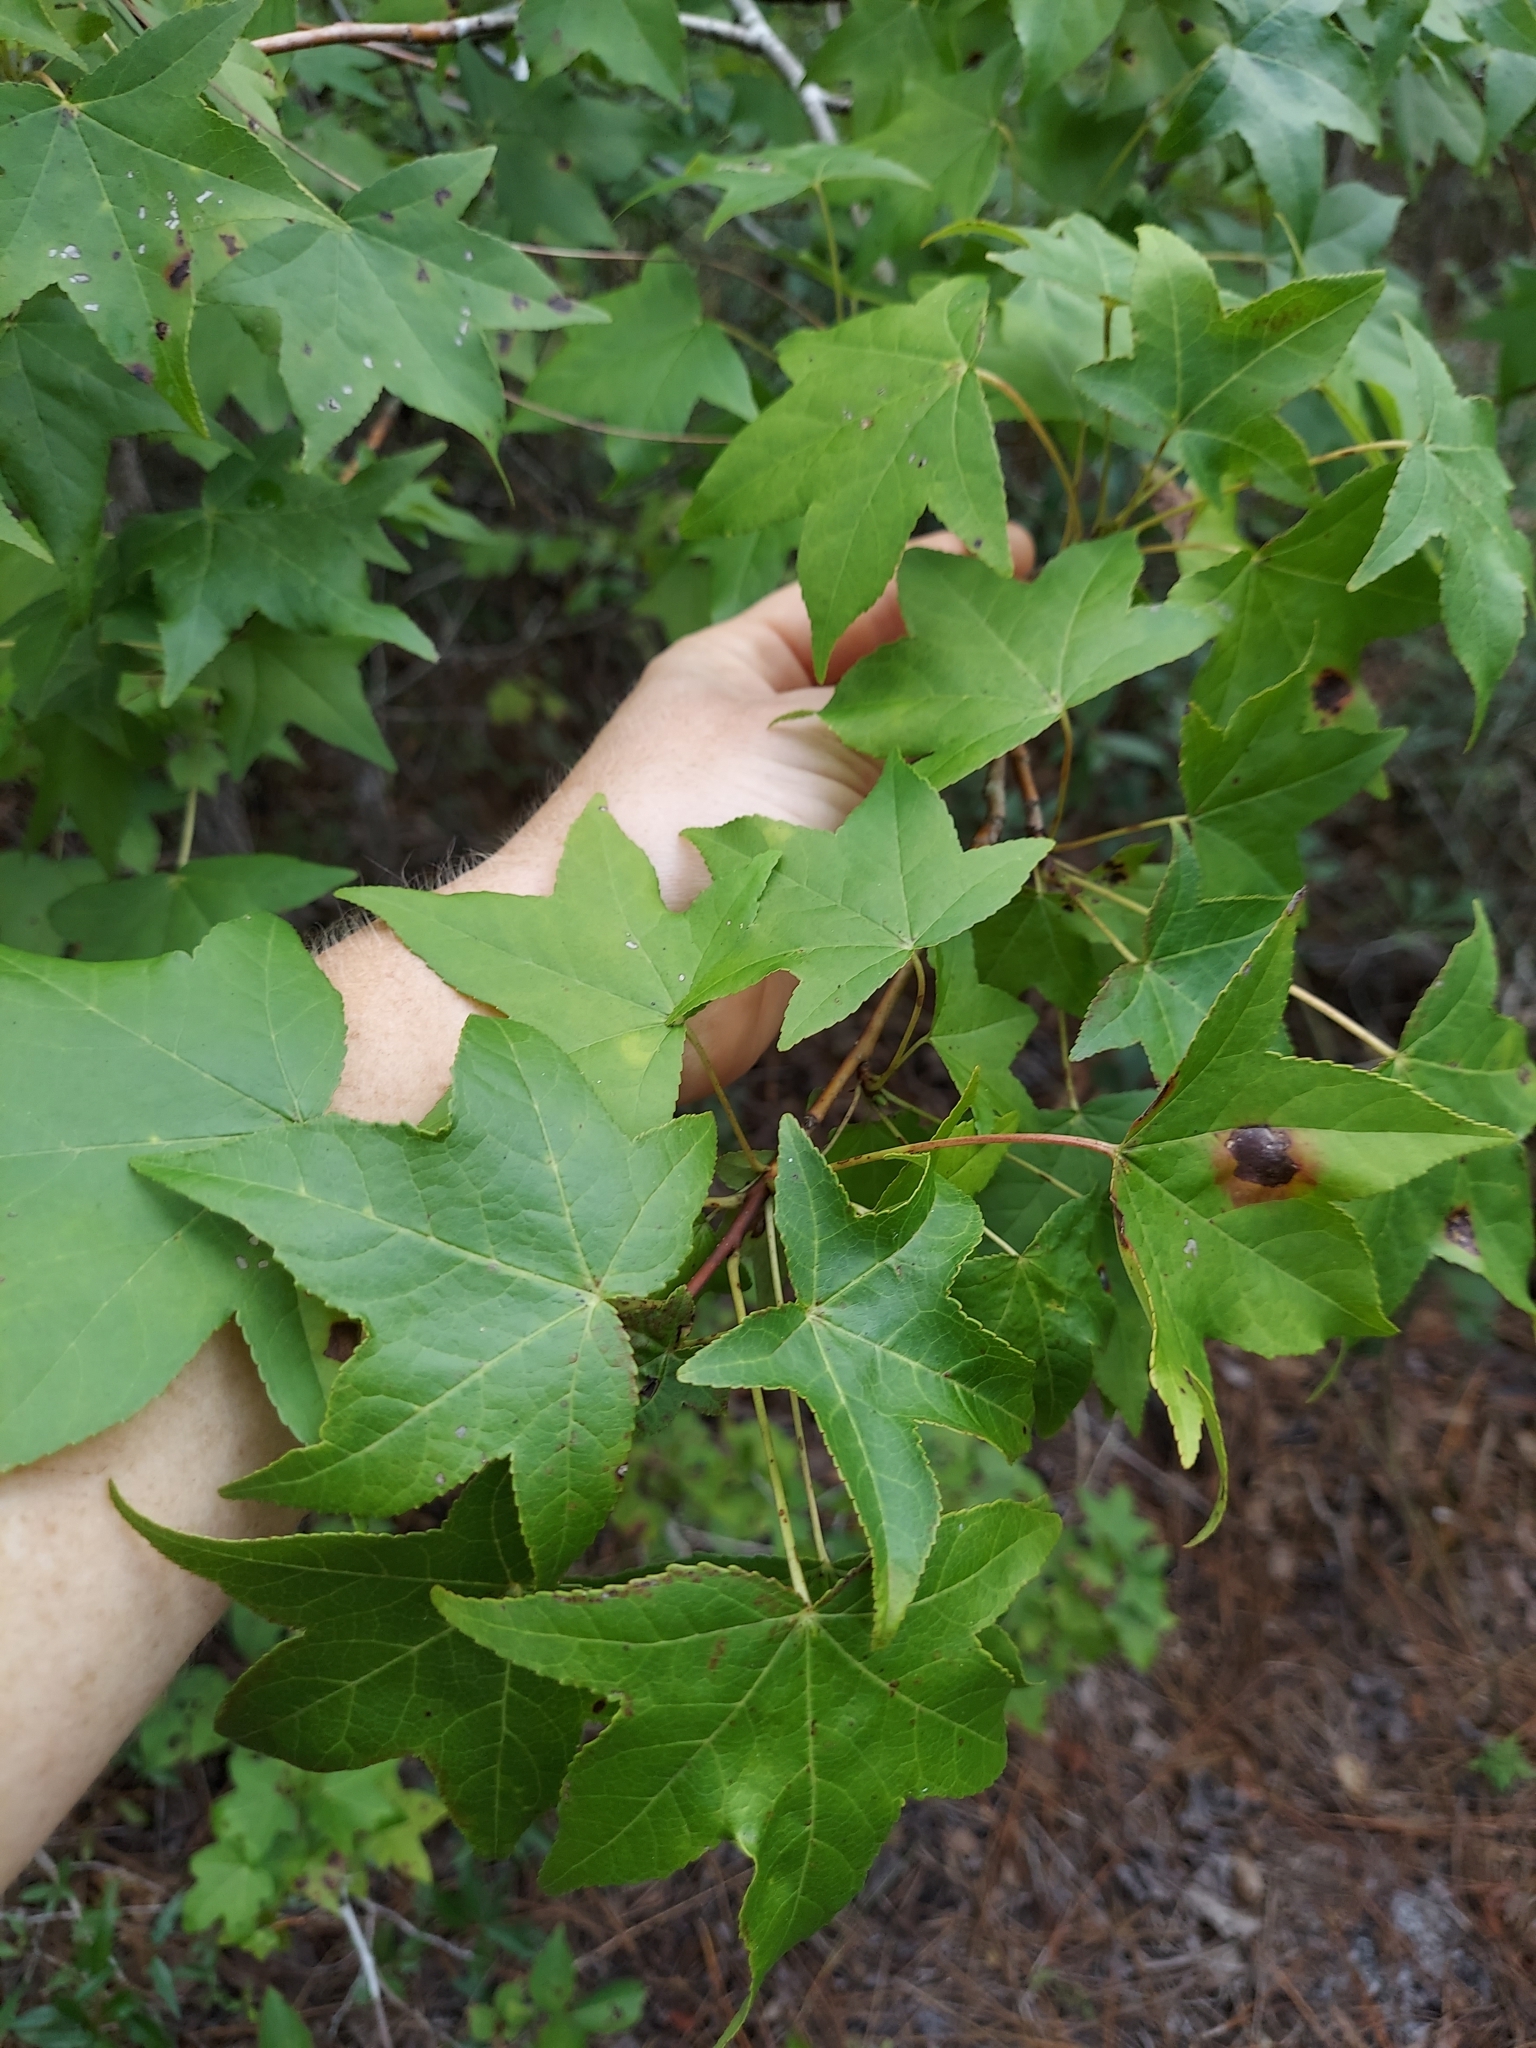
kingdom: Plantae
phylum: Tracheophyta
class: Magnoliopsida
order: Saxifragales
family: Altingiaceae
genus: Liquidambar
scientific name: Liquidambar styraciflua
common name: Sweet gum
